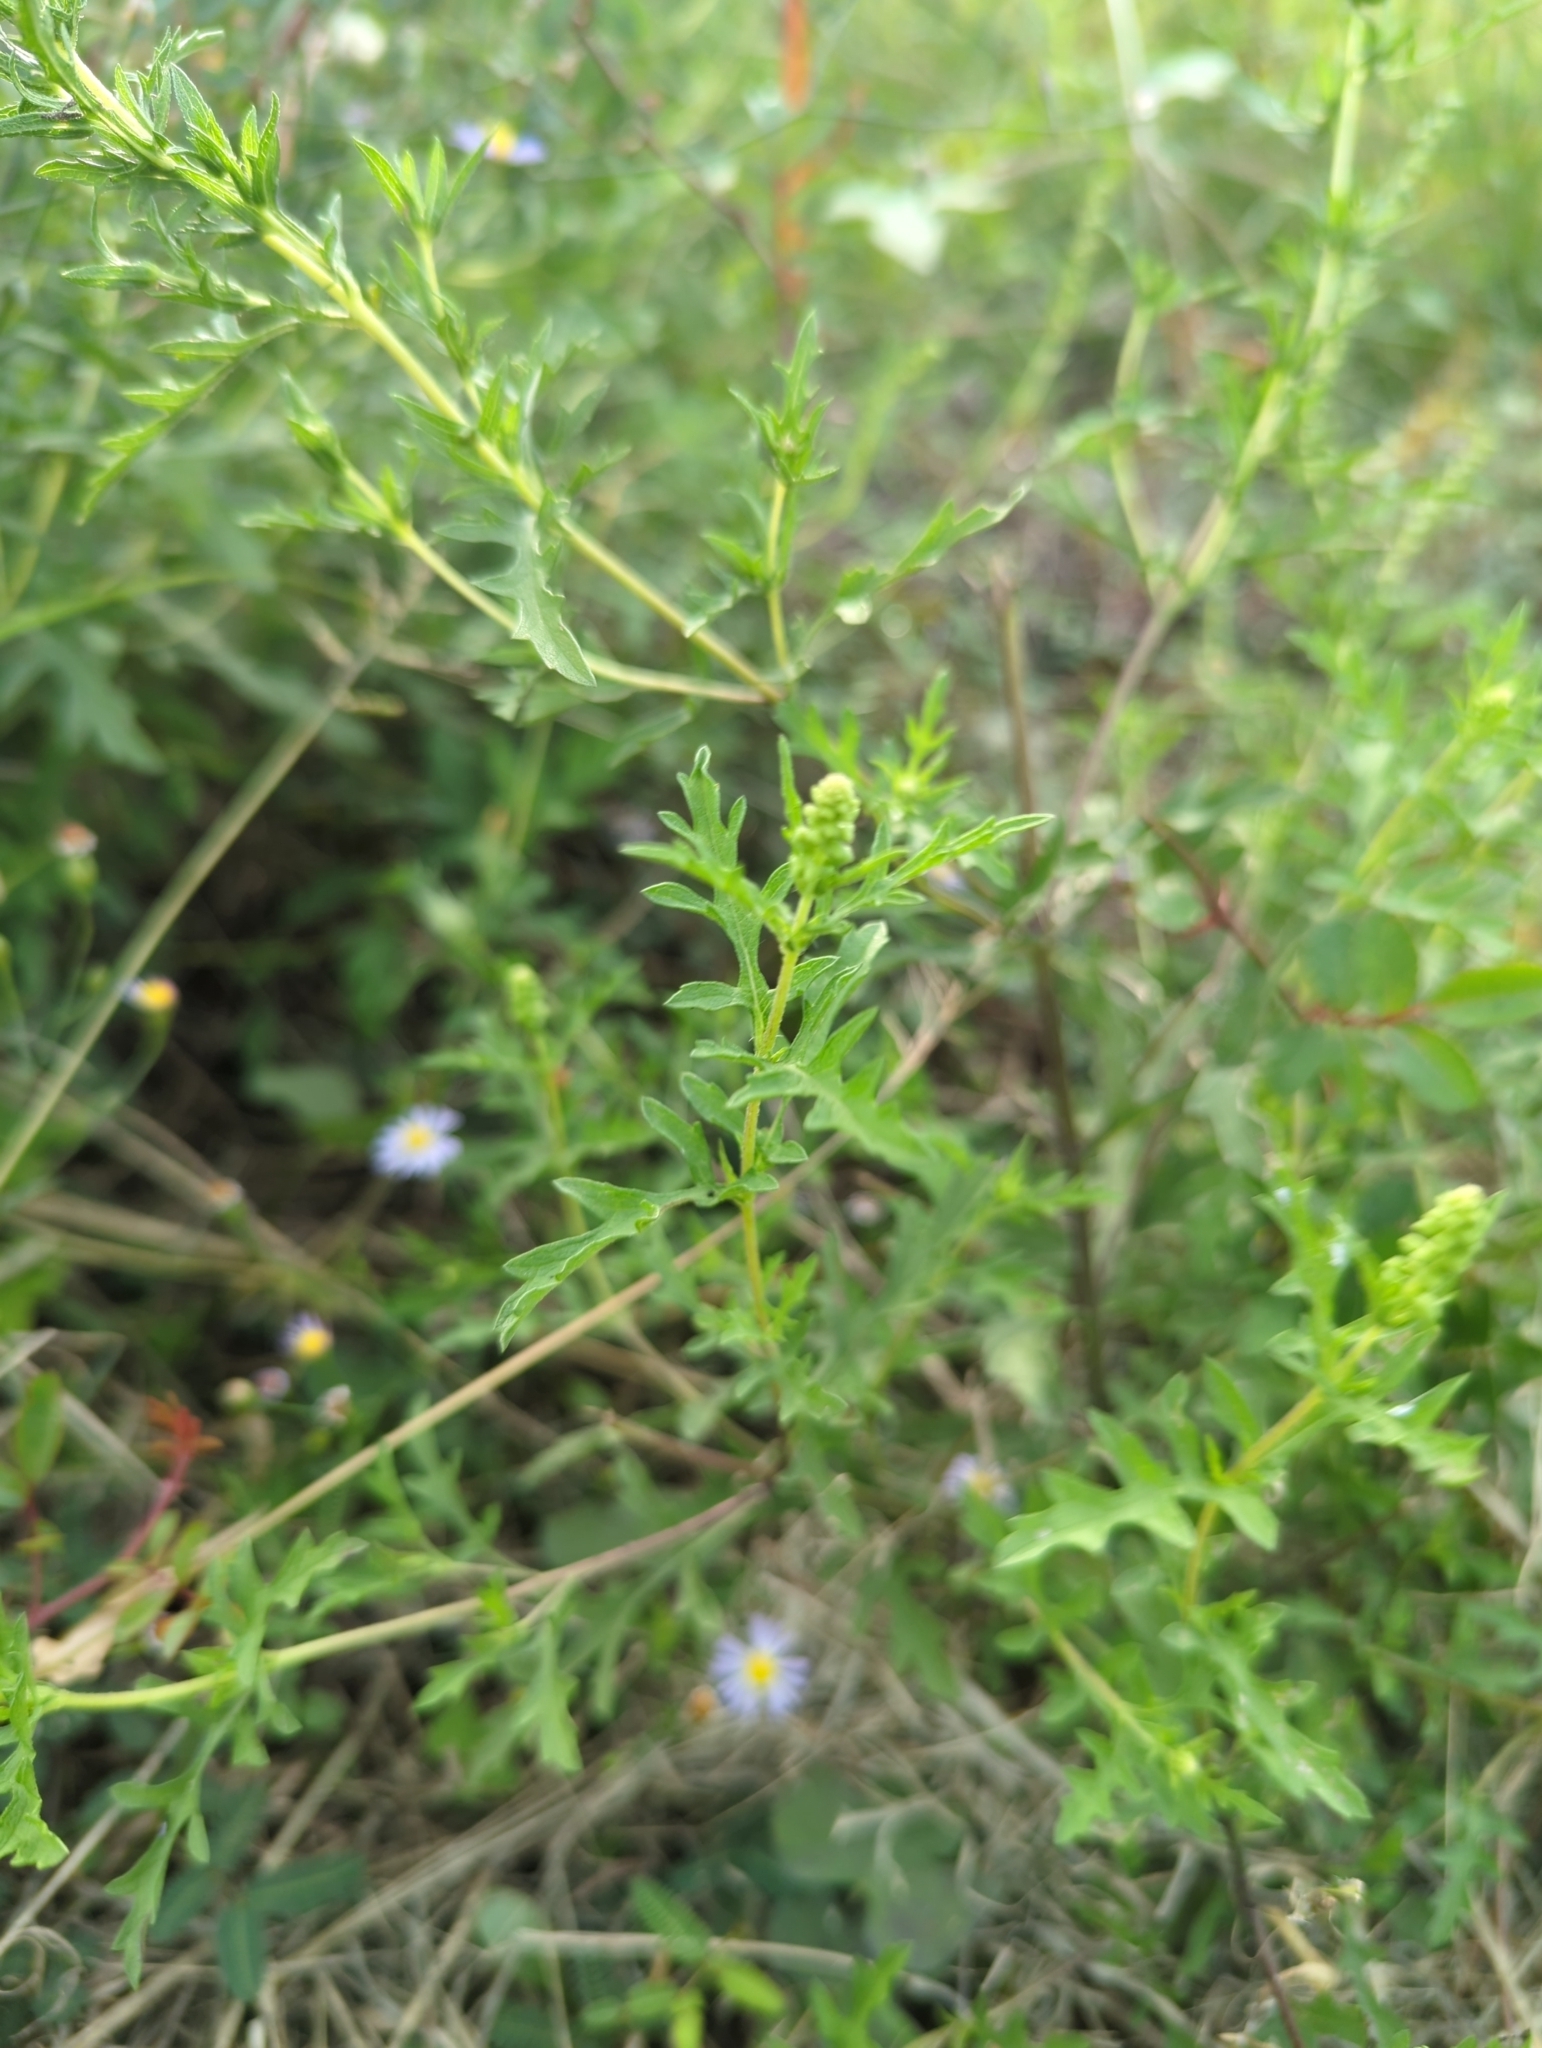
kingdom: Plantae
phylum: Tracheophyta
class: Magnoliopsida
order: Asterales
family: Asteraceae
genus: Ambrosia
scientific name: Ambrosia psilostachya
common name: Perennial ragweed
